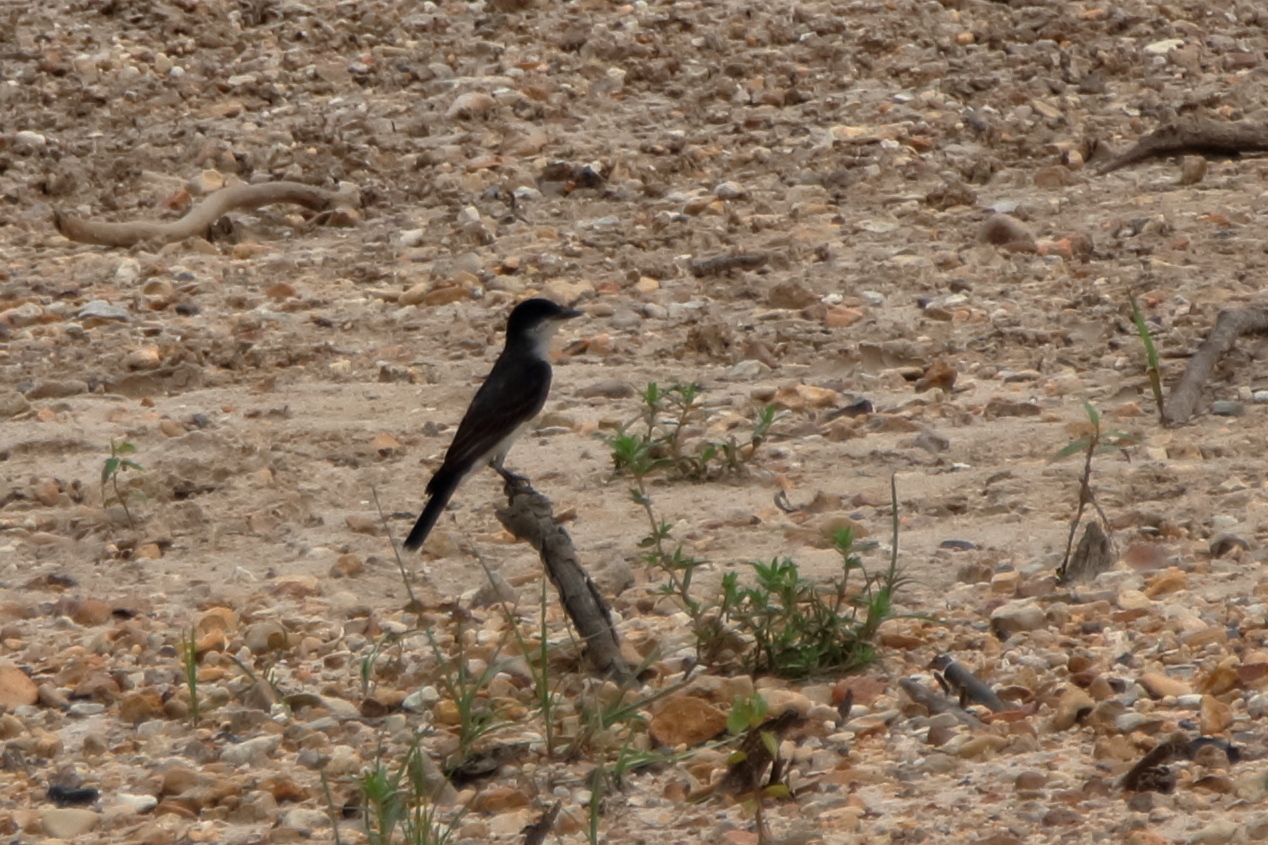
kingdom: Animalia
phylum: Chordata
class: Aves
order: Passeriformes
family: Tyrannidae
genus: Tyrannus
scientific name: Tyrannus tyrannus
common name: Eastern kingbird
